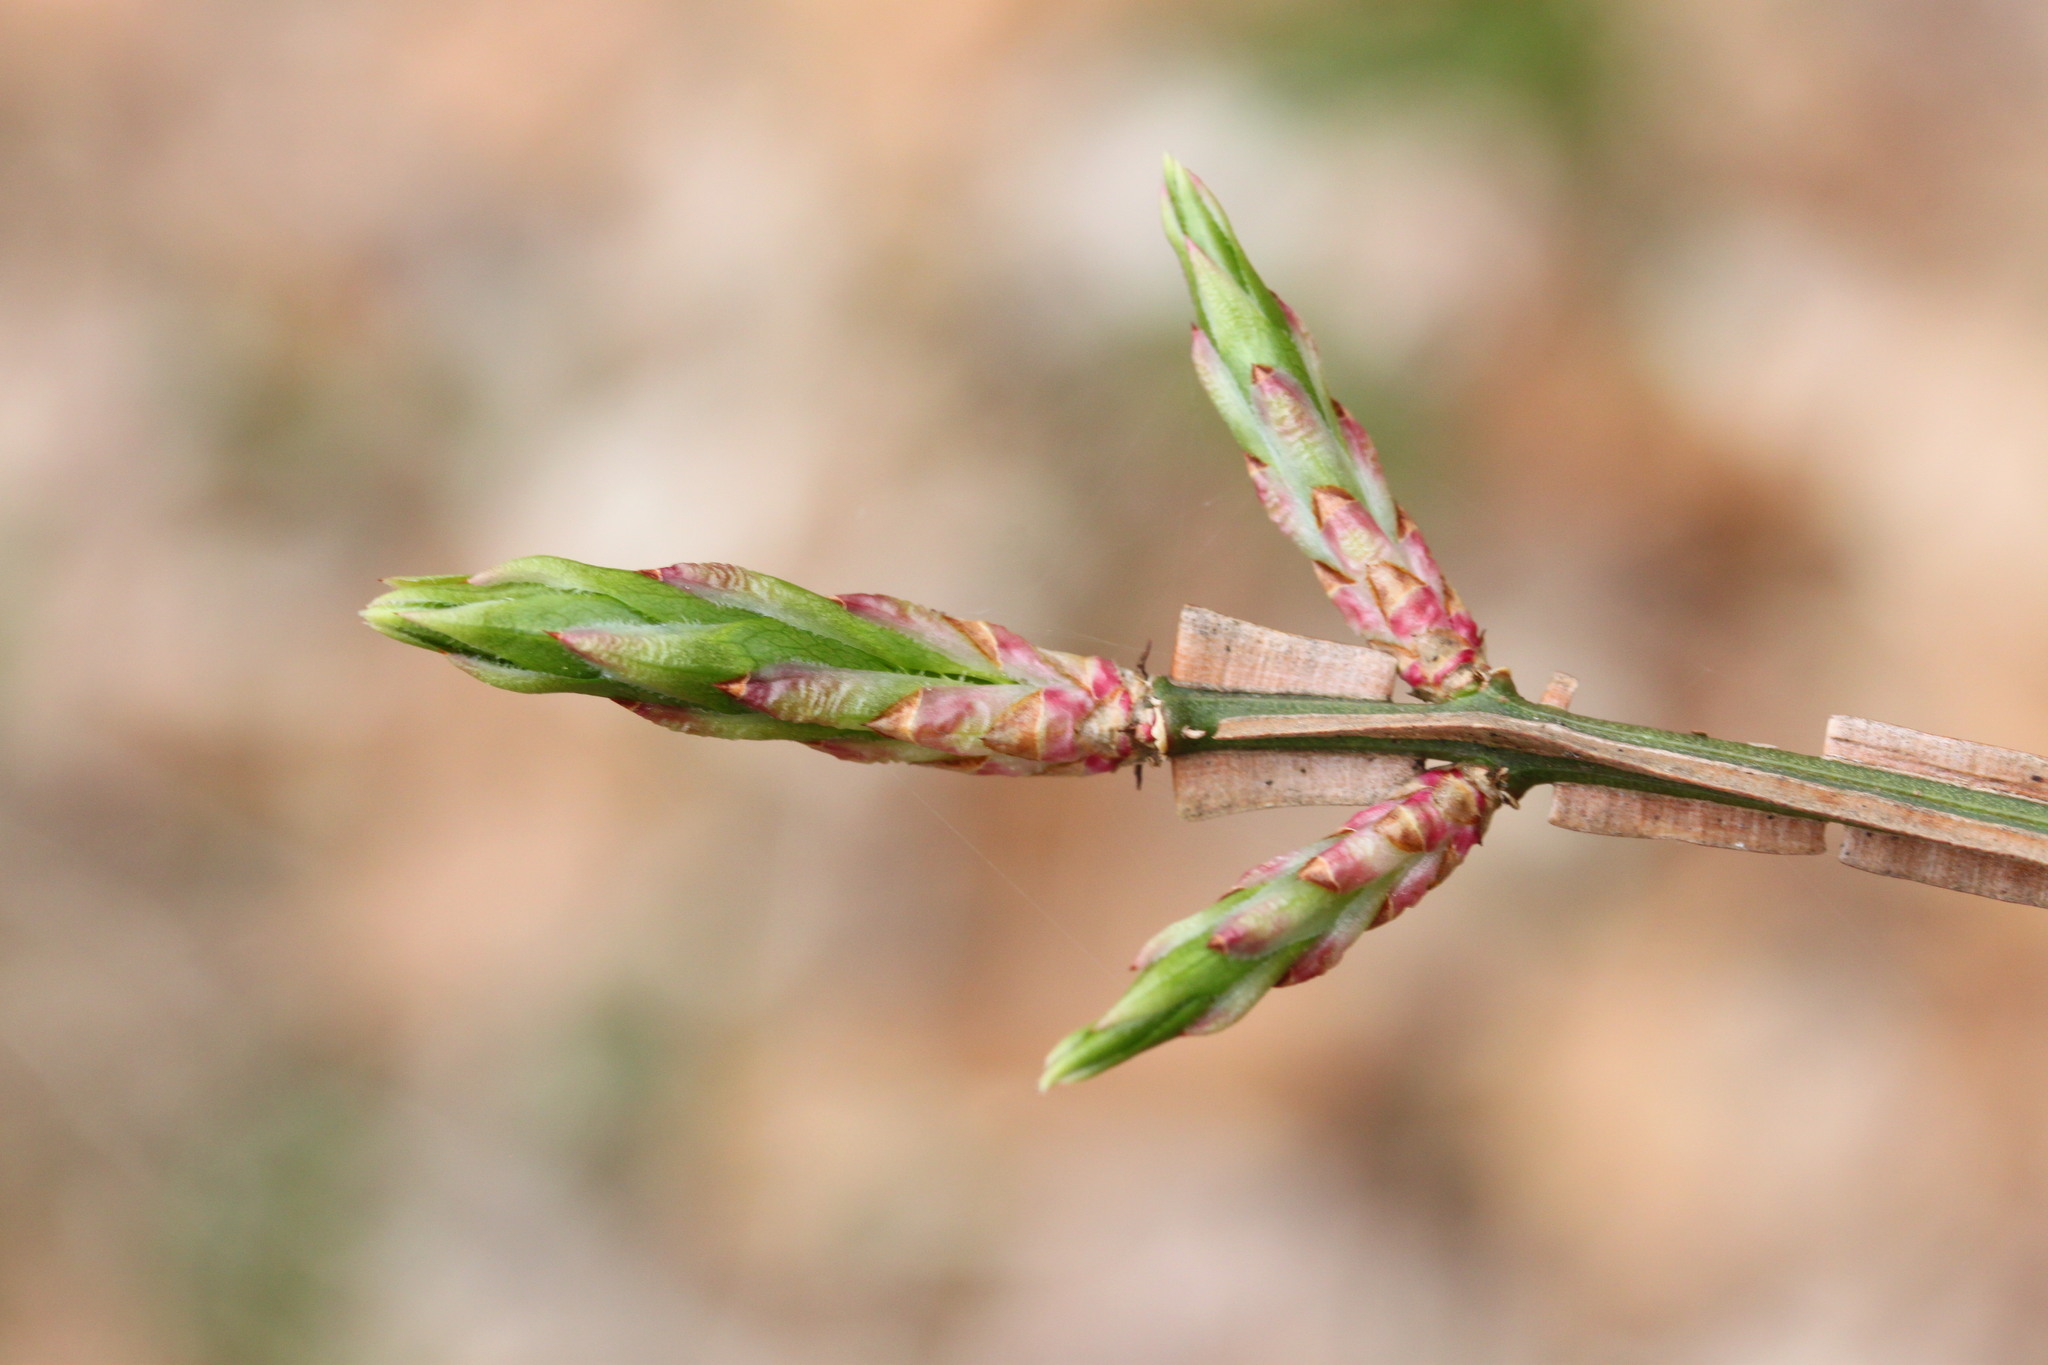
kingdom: Plantae
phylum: Tracheophyta
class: Magnoliopsida
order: Celastrales
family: Celastraceae
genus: Euonymus
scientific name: Euonymus alatus
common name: Winged euonymus
